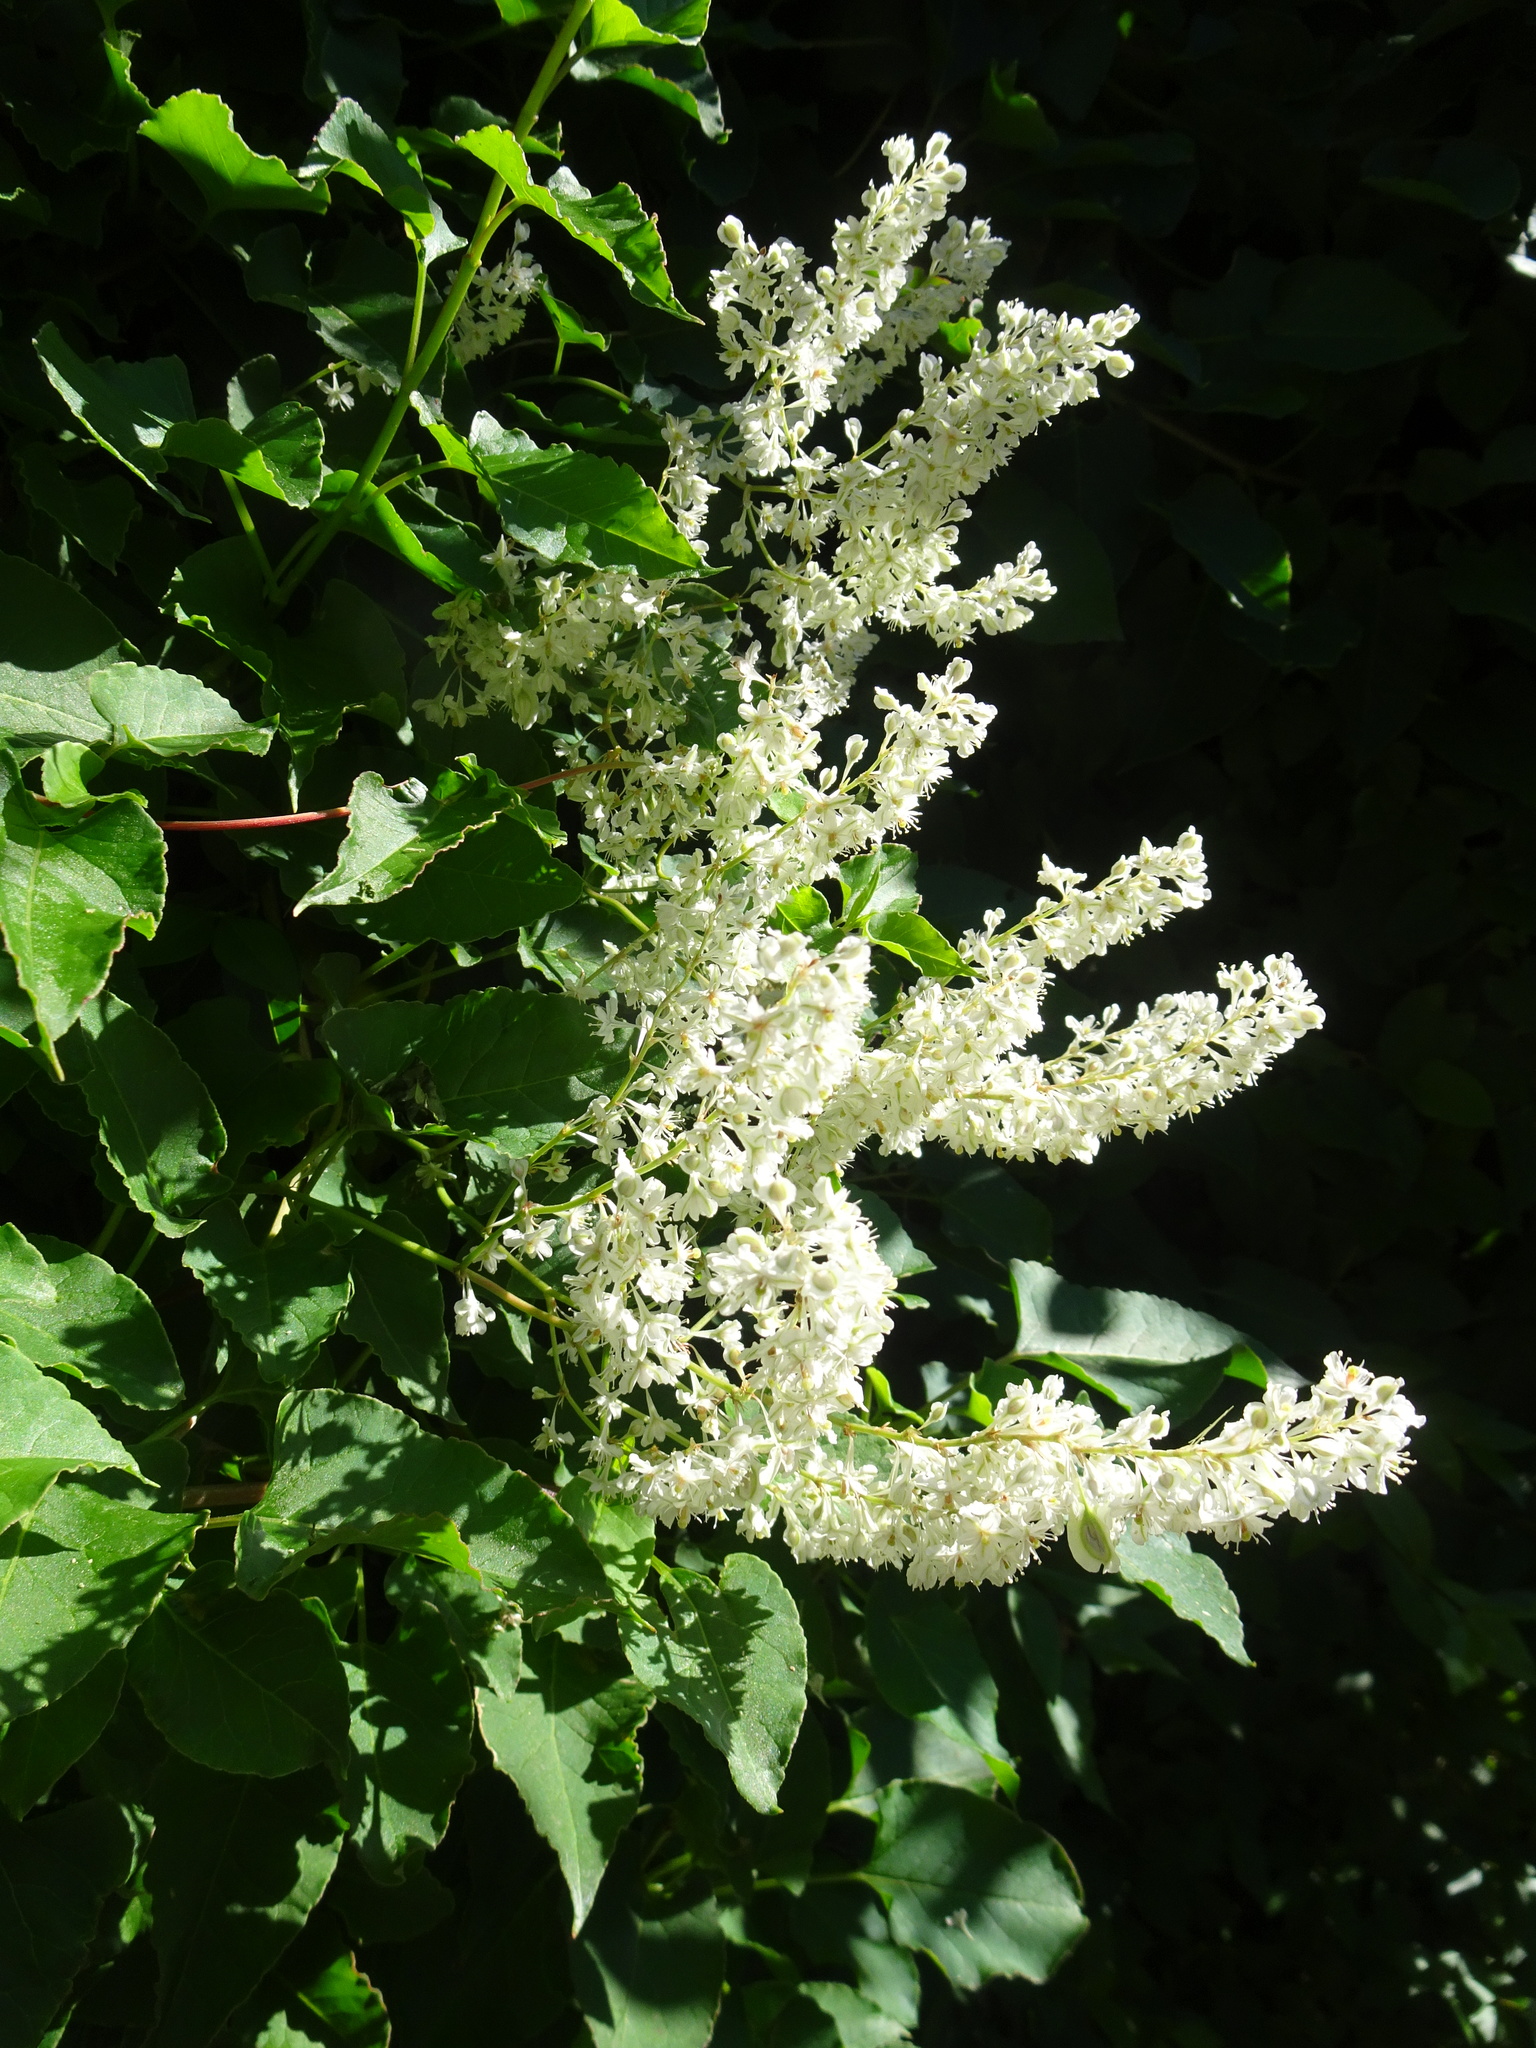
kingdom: Plantae
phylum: Tracheophyta
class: Magnoliopsida
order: Caryophyllales
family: Polygonaceae
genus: Fallopia
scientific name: Fallopia baldschuanica
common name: Russian-vine
